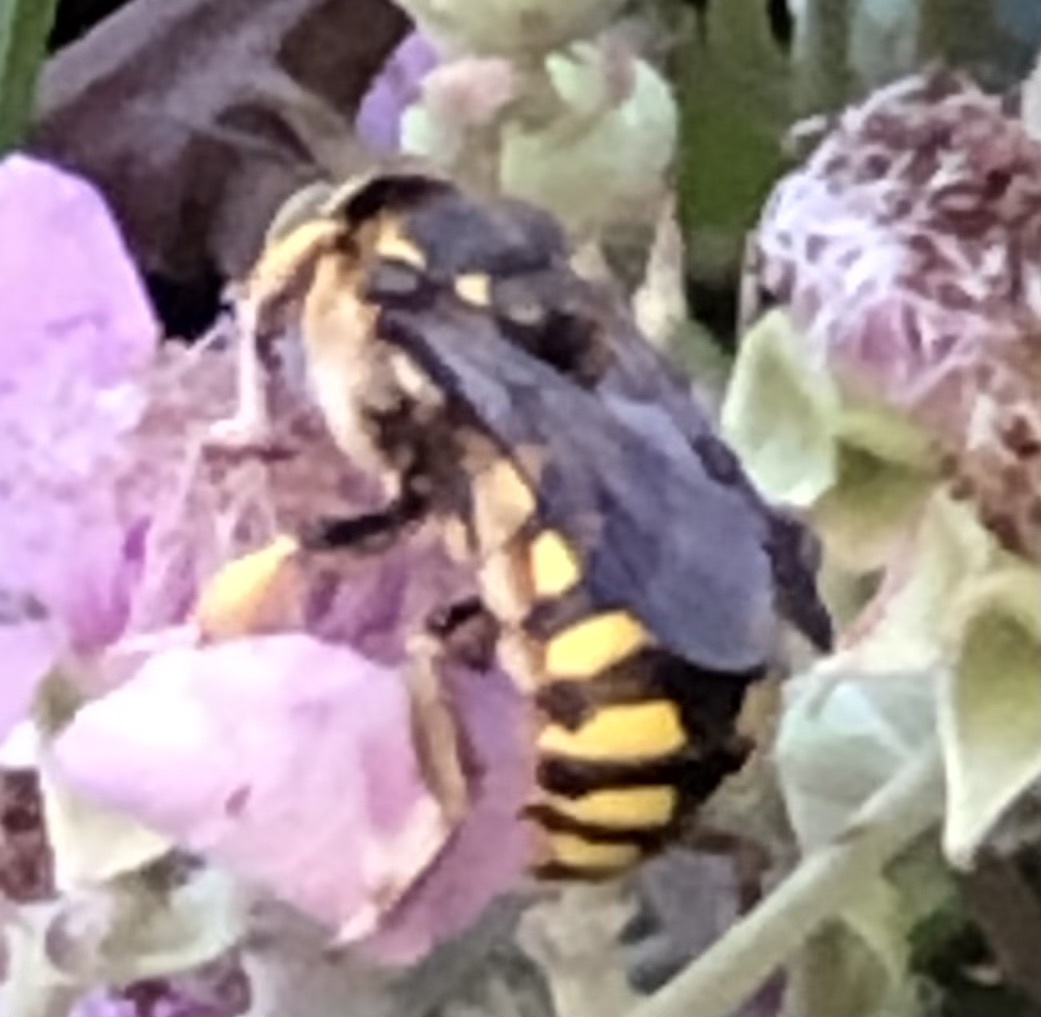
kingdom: Animalia
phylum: Arthropoda
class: Insecta
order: Hymenoptera
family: Megachilidae
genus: Anthidium
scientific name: Anthidium florentinum
